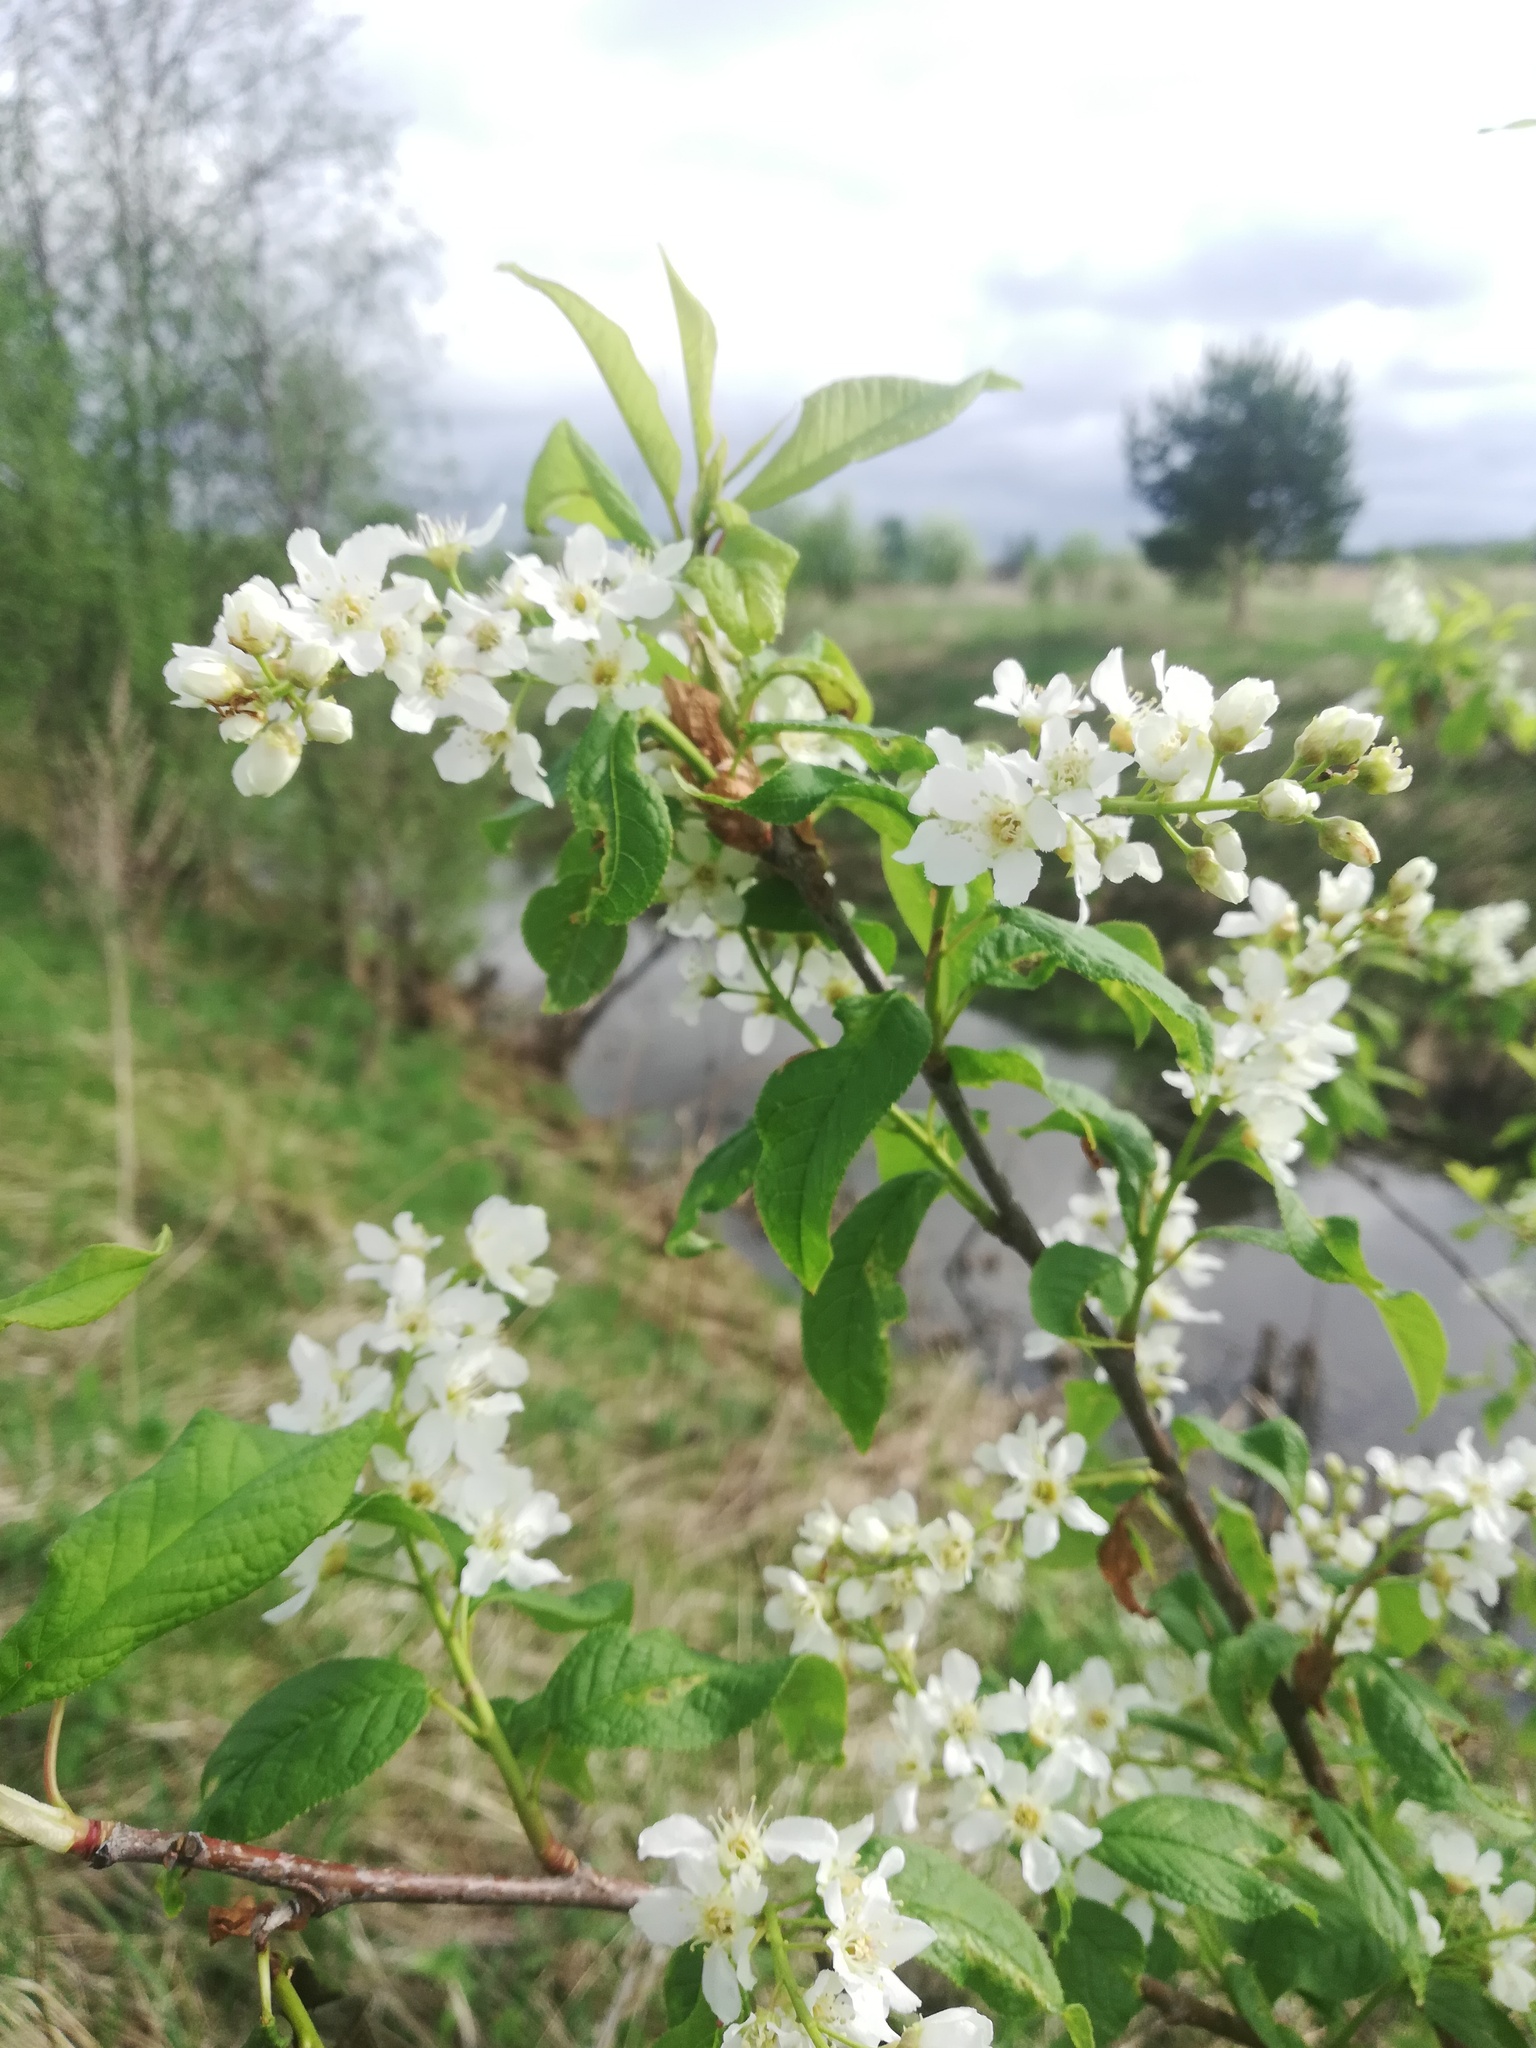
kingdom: Plantae
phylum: Tracheophyta
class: Magnoliopsida
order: Rosales
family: Rosaceae
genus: Prunus
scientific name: Prunus padus
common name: Bird cherry
